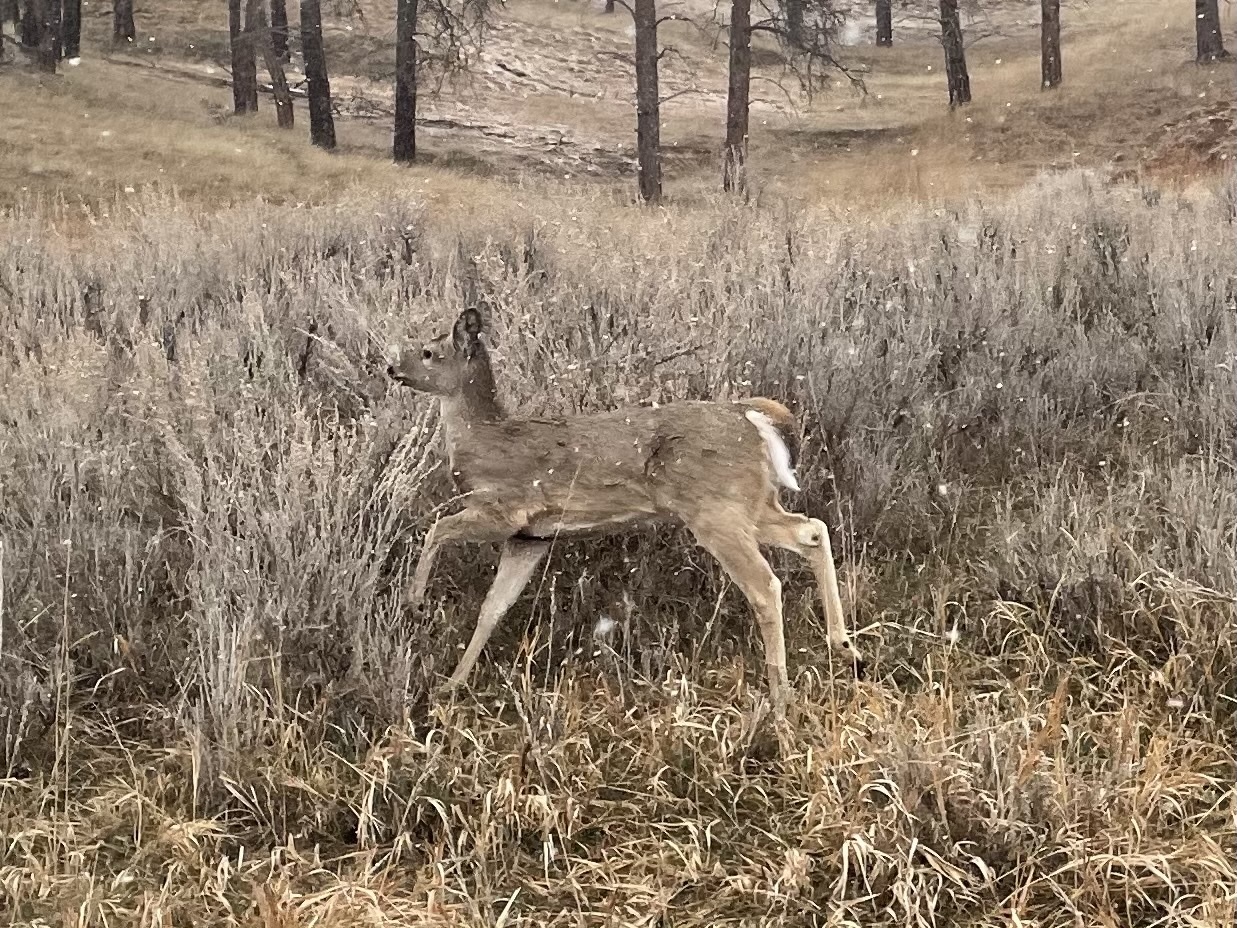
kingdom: Animalia
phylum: Chordata
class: Mammalia
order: Artiodactyla
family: Cervidae
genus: Odocoileus
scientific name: Odocoileus virginianus
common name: White-tailed deer
